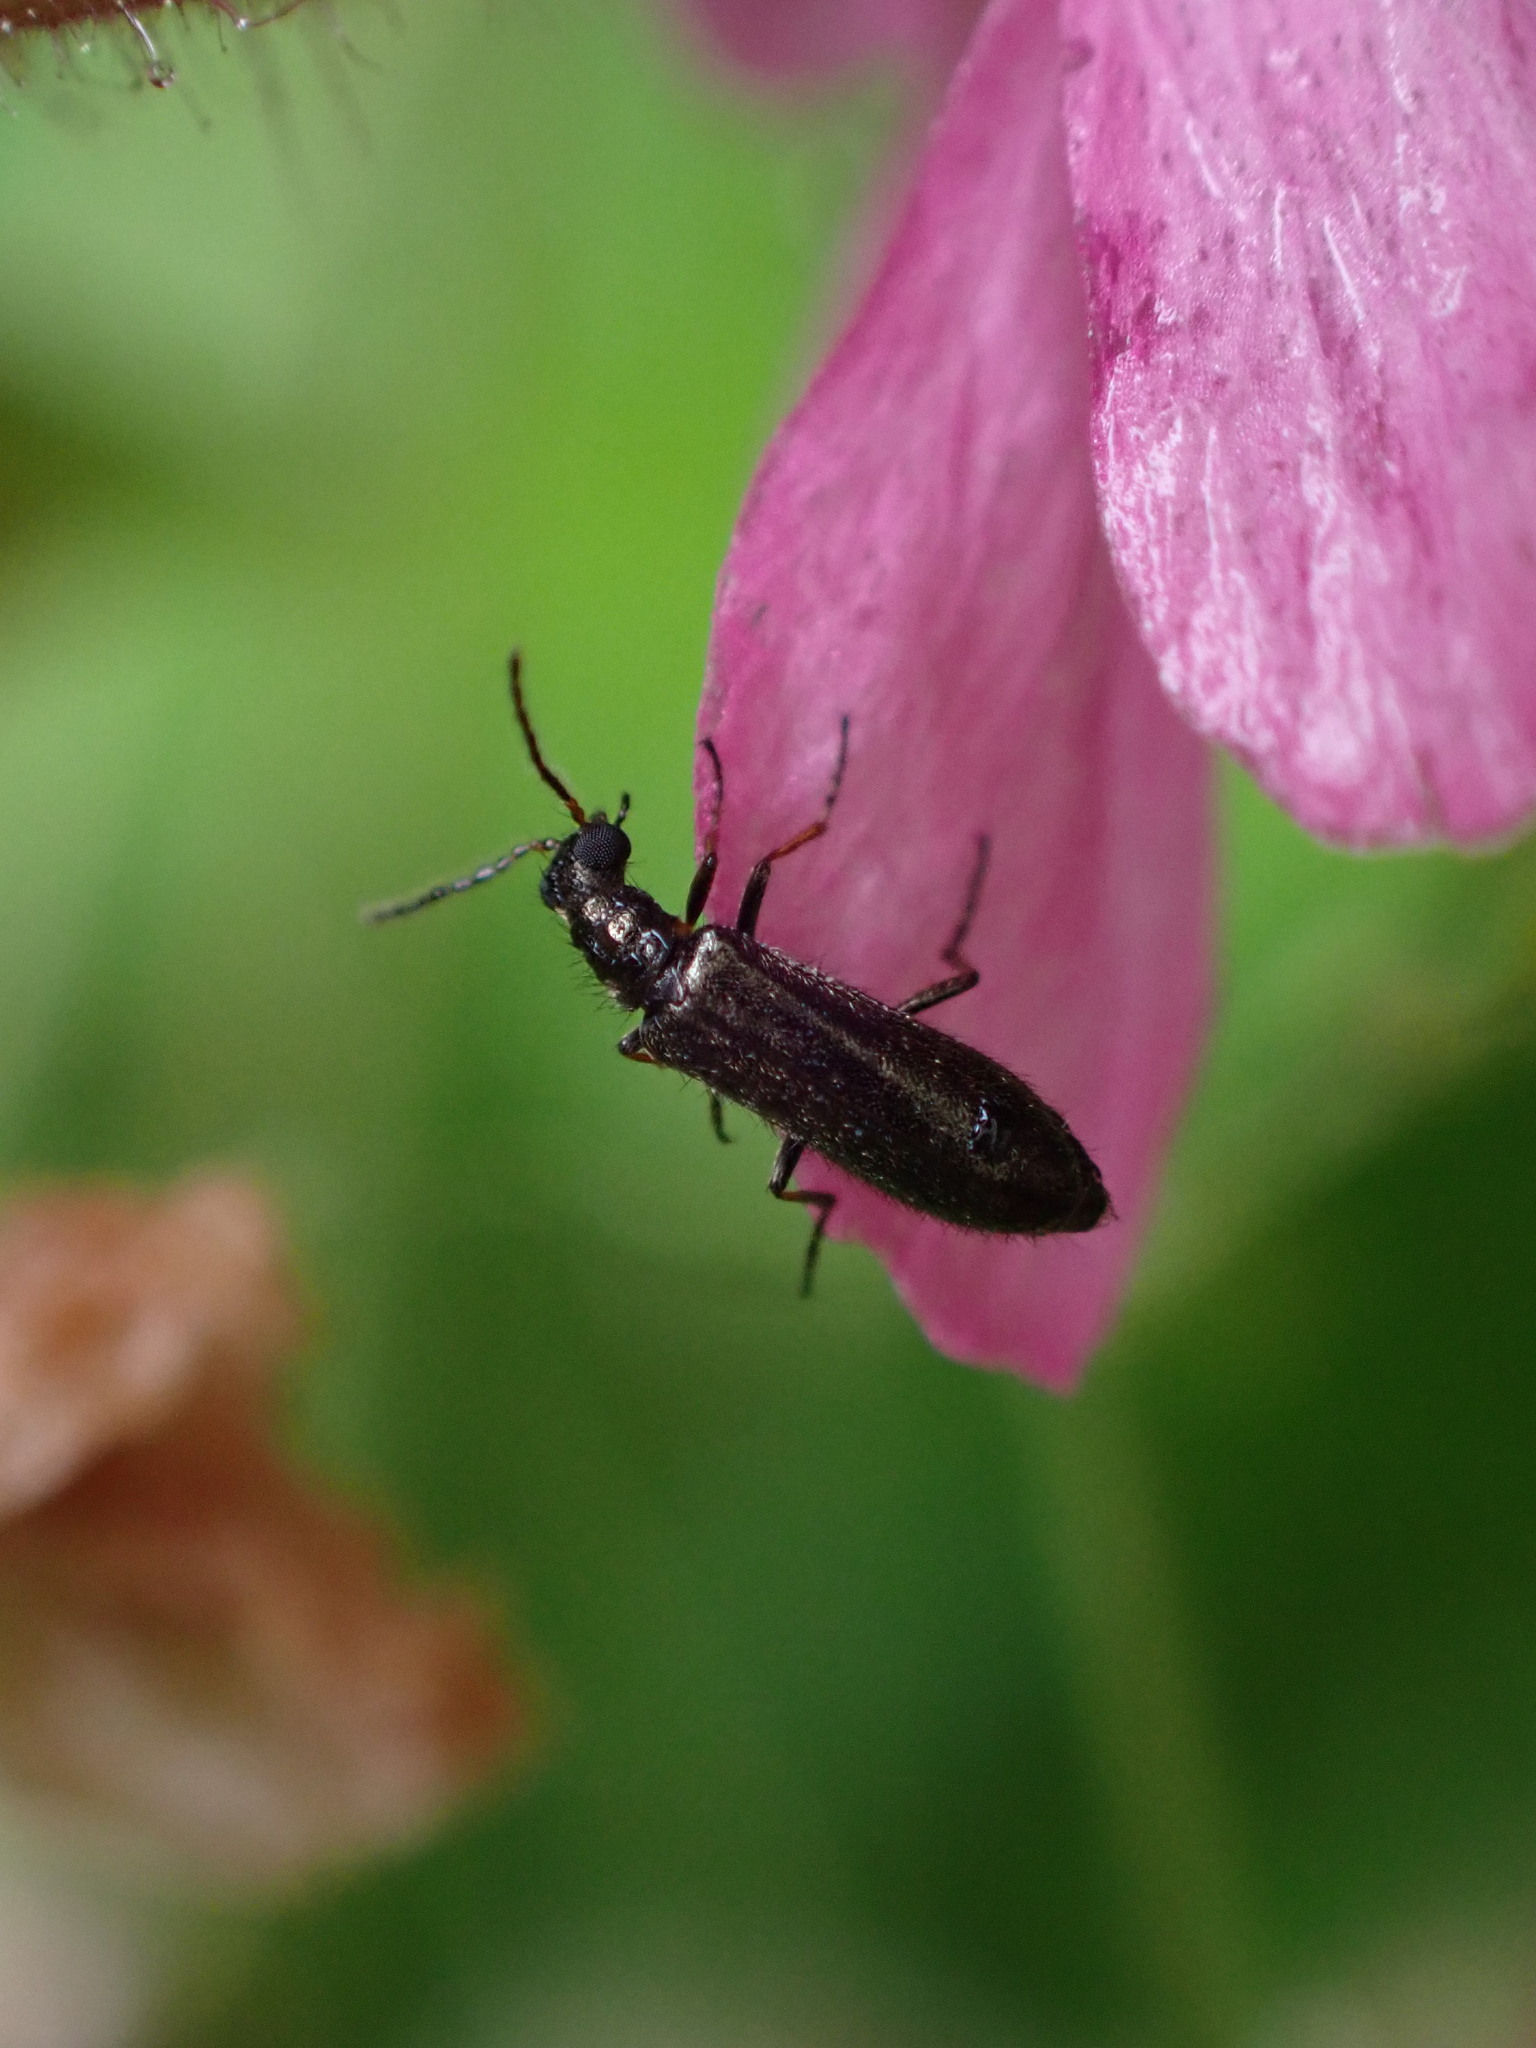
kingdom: Animalia
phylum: Arthropoda
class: Insecta
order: Coleoptera
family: Melyridae
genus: Dasytes
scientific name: Dasytes plumbeus
